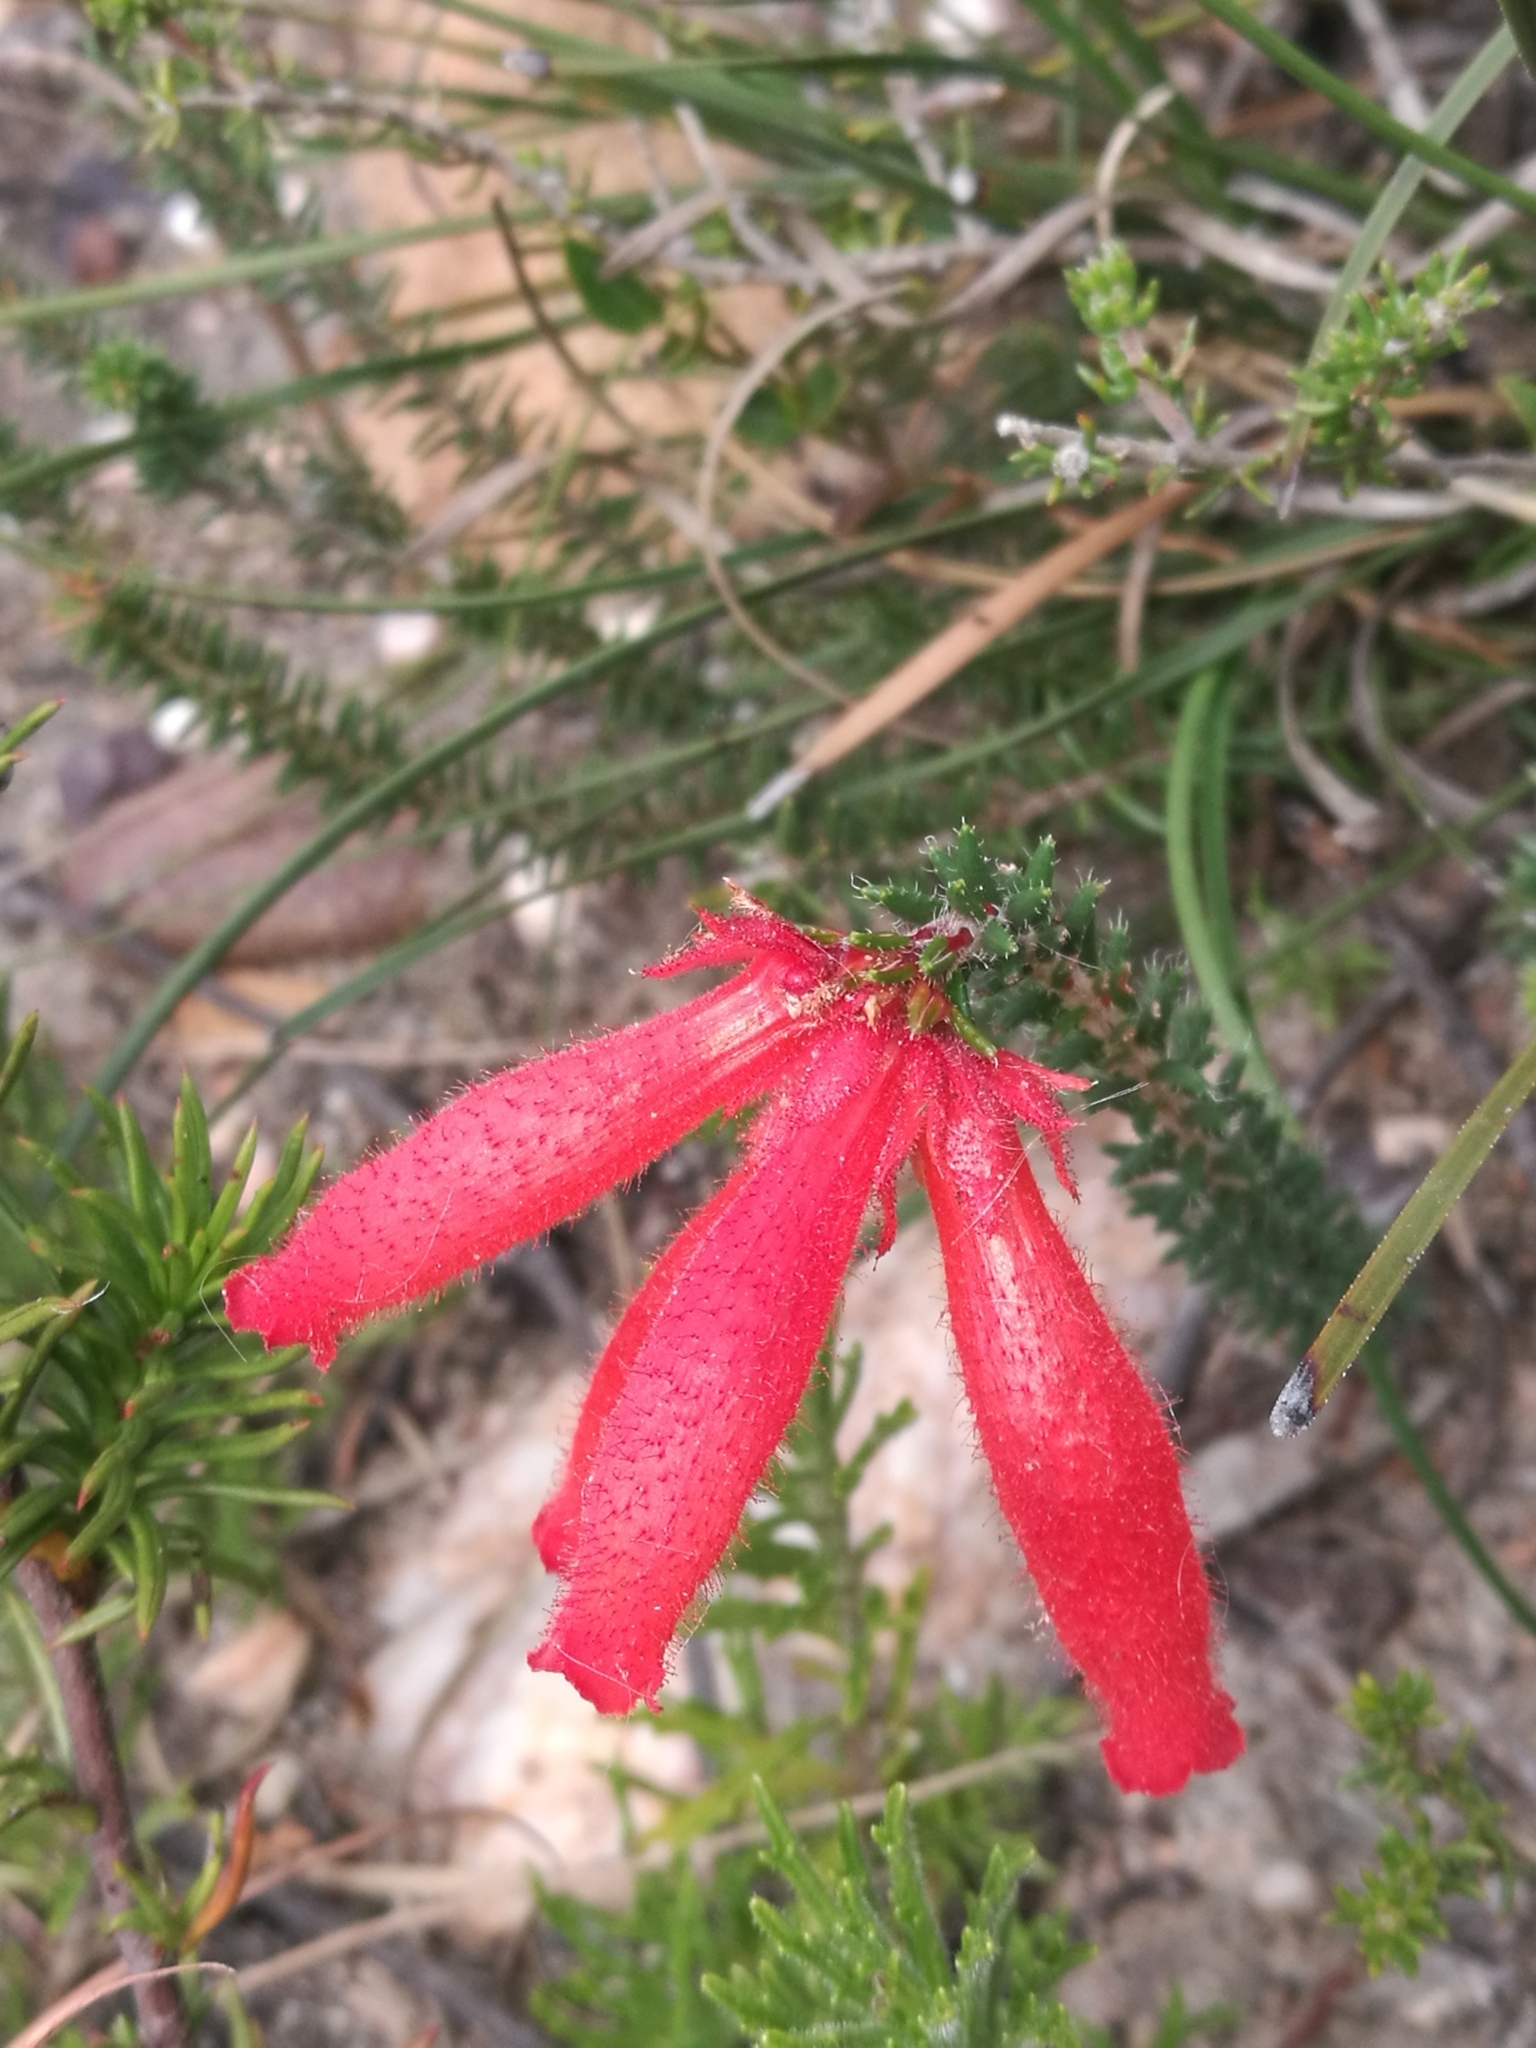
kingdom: Plantae
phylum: Tracheophyta
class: Magnoliopsida
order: Ericales
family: Ericaceae
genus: Erica
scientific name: Erica cerinthoides
